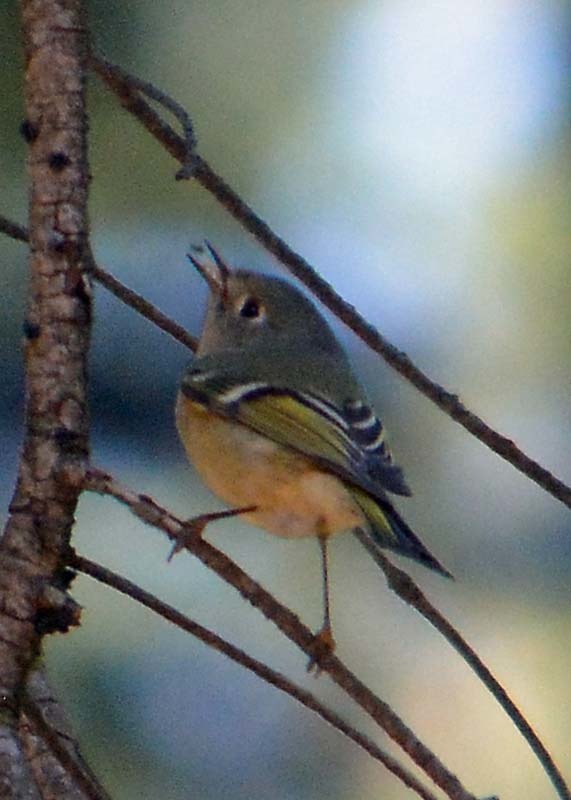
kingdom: Animalia
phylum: Chordata
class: Aves
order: Passeriformes
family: Regulidae
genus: Regulus
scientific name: Regulus calendula
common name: Ruby-crowned kinglet
